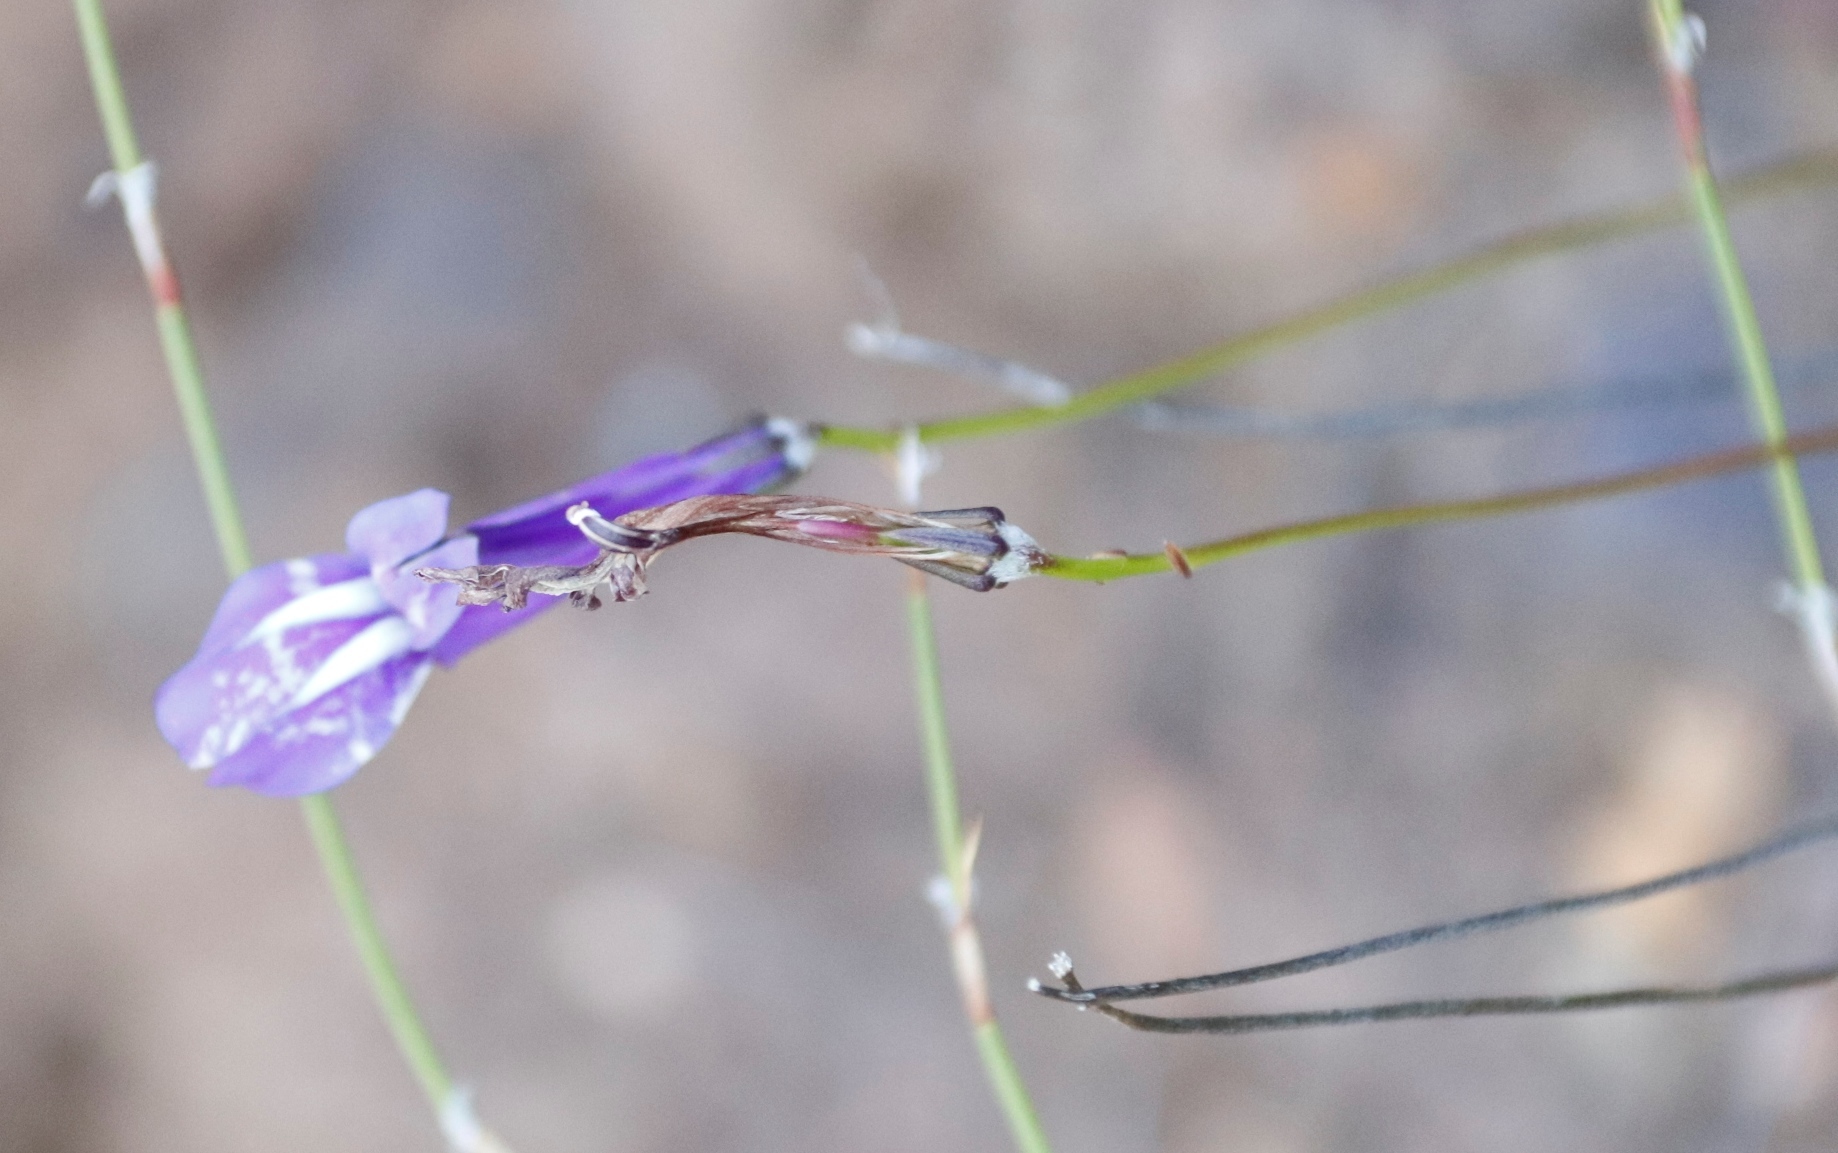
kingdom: Plantae
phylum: Tracheophyta
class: Magnoliopsida
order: Asterales
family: Campanulaceae
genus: Lobelia
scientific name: Lobelia coronopifolia
